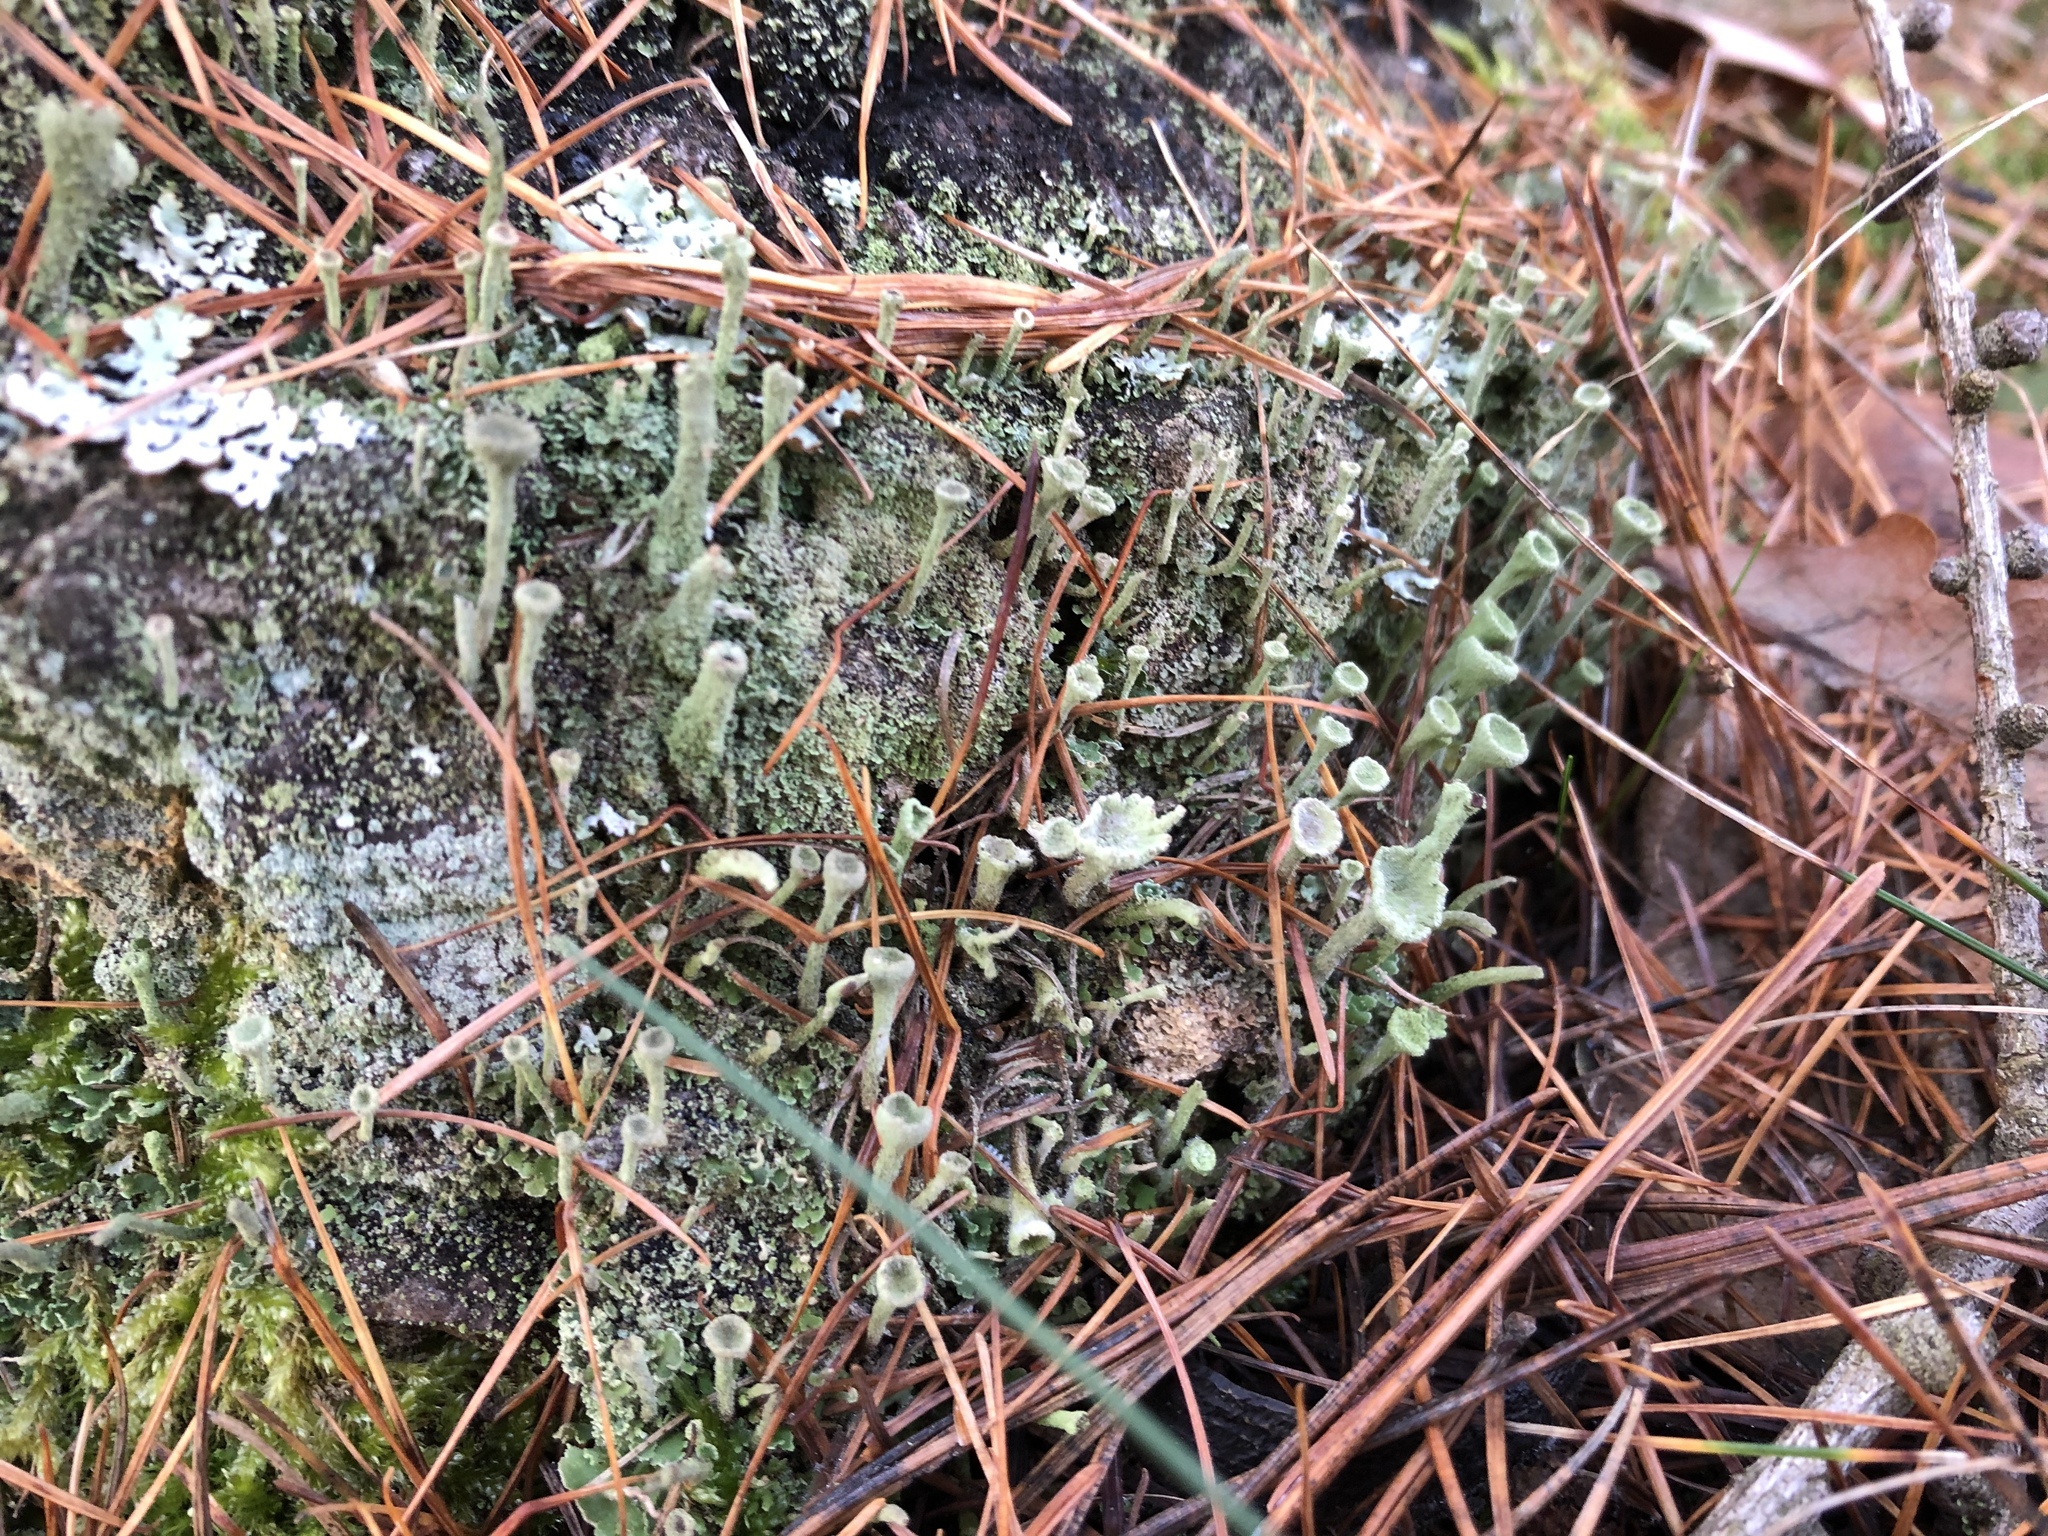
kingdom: Fungi
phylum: Ascomycota
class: Lecanoromycetes
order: Lecanorales
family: Cladoniaceae
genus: Cladonia
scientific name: Cladonia fimbriata
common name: Powdered trumpet lichen
